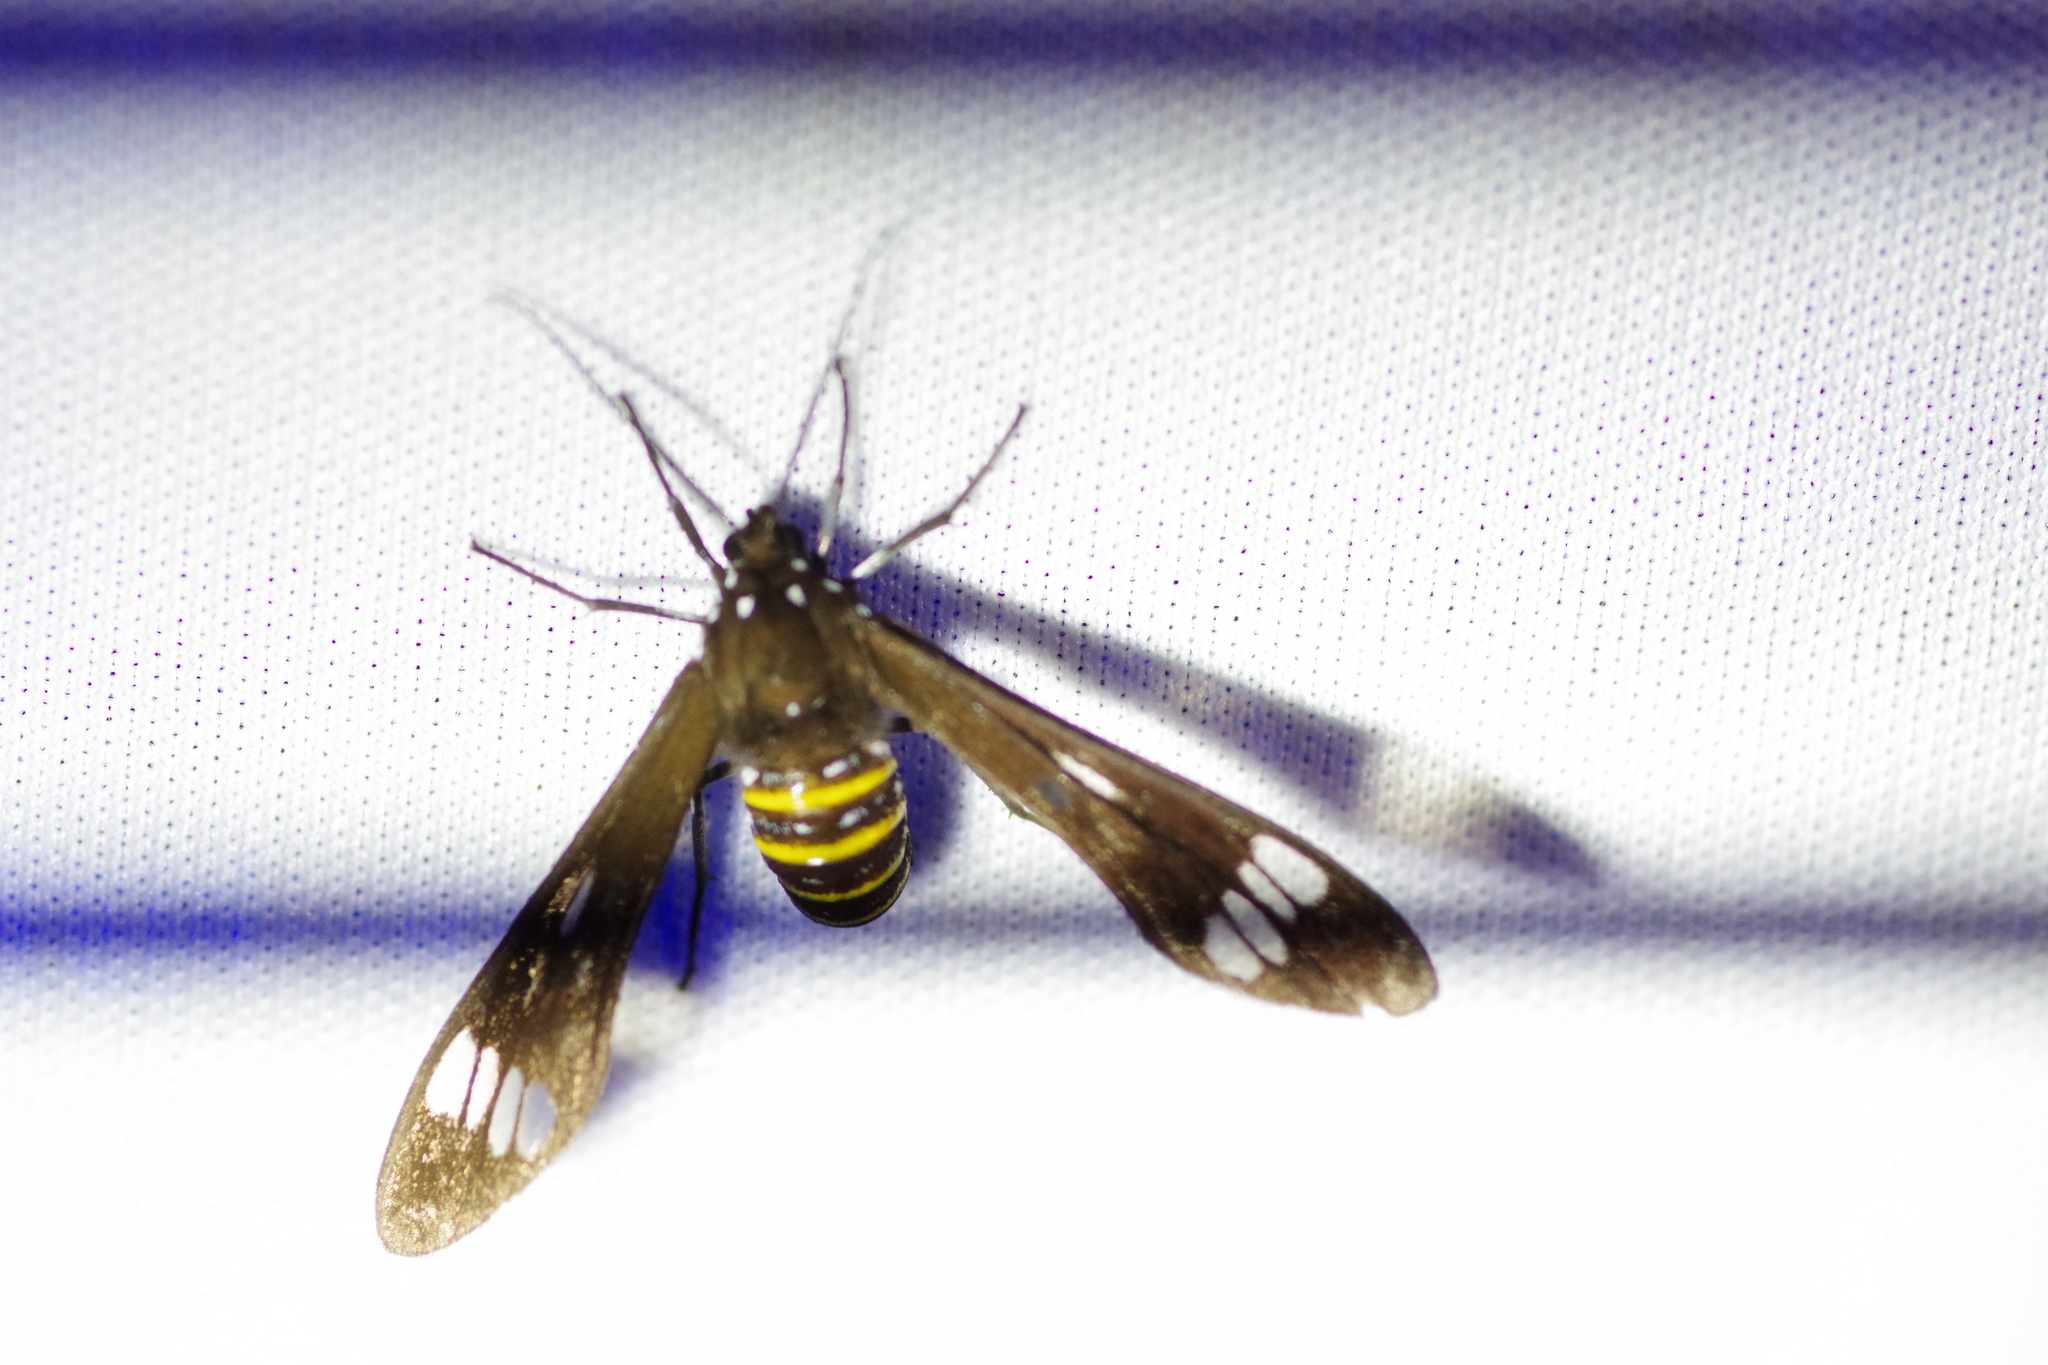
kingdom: Animalia
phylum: Arthropoda
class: Insecta
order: Lepidoptera
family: Erebidae
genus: Phaenarete
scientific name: Phaenarete diana
